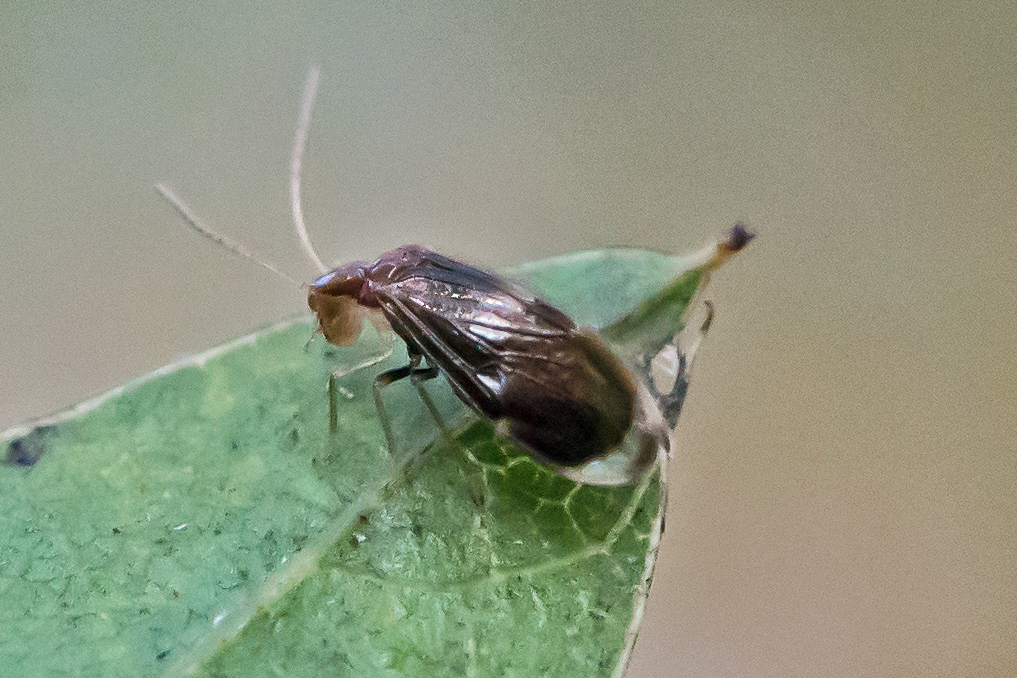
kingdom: Animalia
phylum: Arthropoda
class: Insecta
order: Psocodea
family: Amphipsocidae
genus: Polypsocus
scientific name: Polypsocus corruptus
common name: Corrupt barklouse
